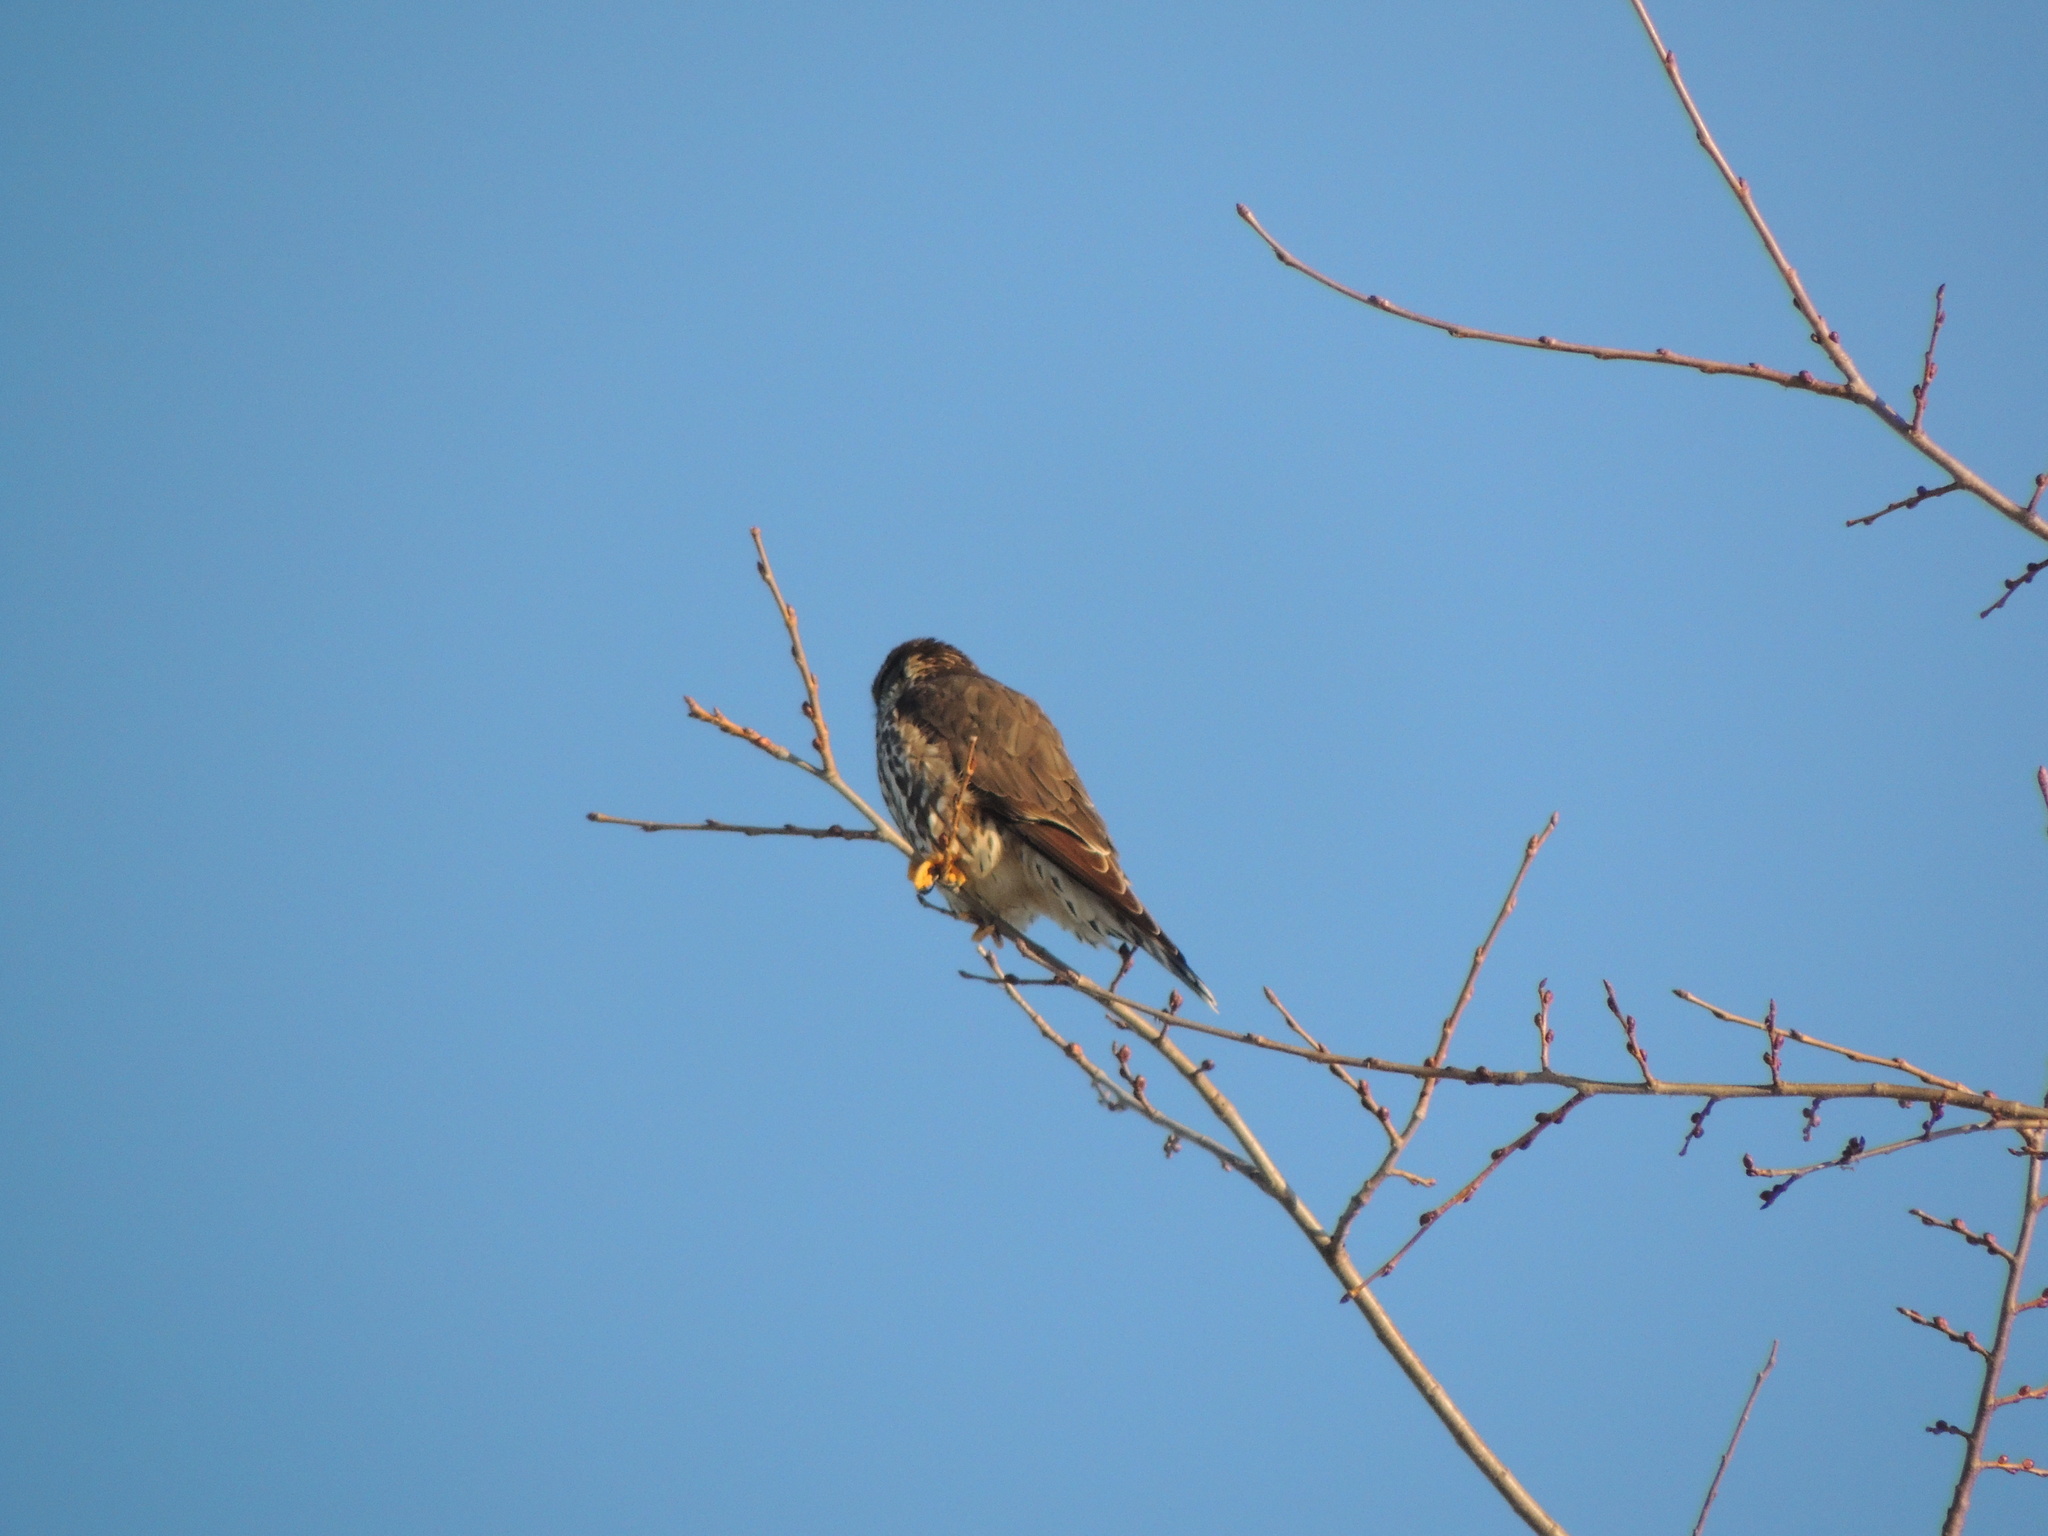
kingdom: Animalia
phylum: Chordata
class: Aves
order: Falconiformes
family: Falconidae
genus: Falco
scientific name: Falco columbarius
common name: Merlin
